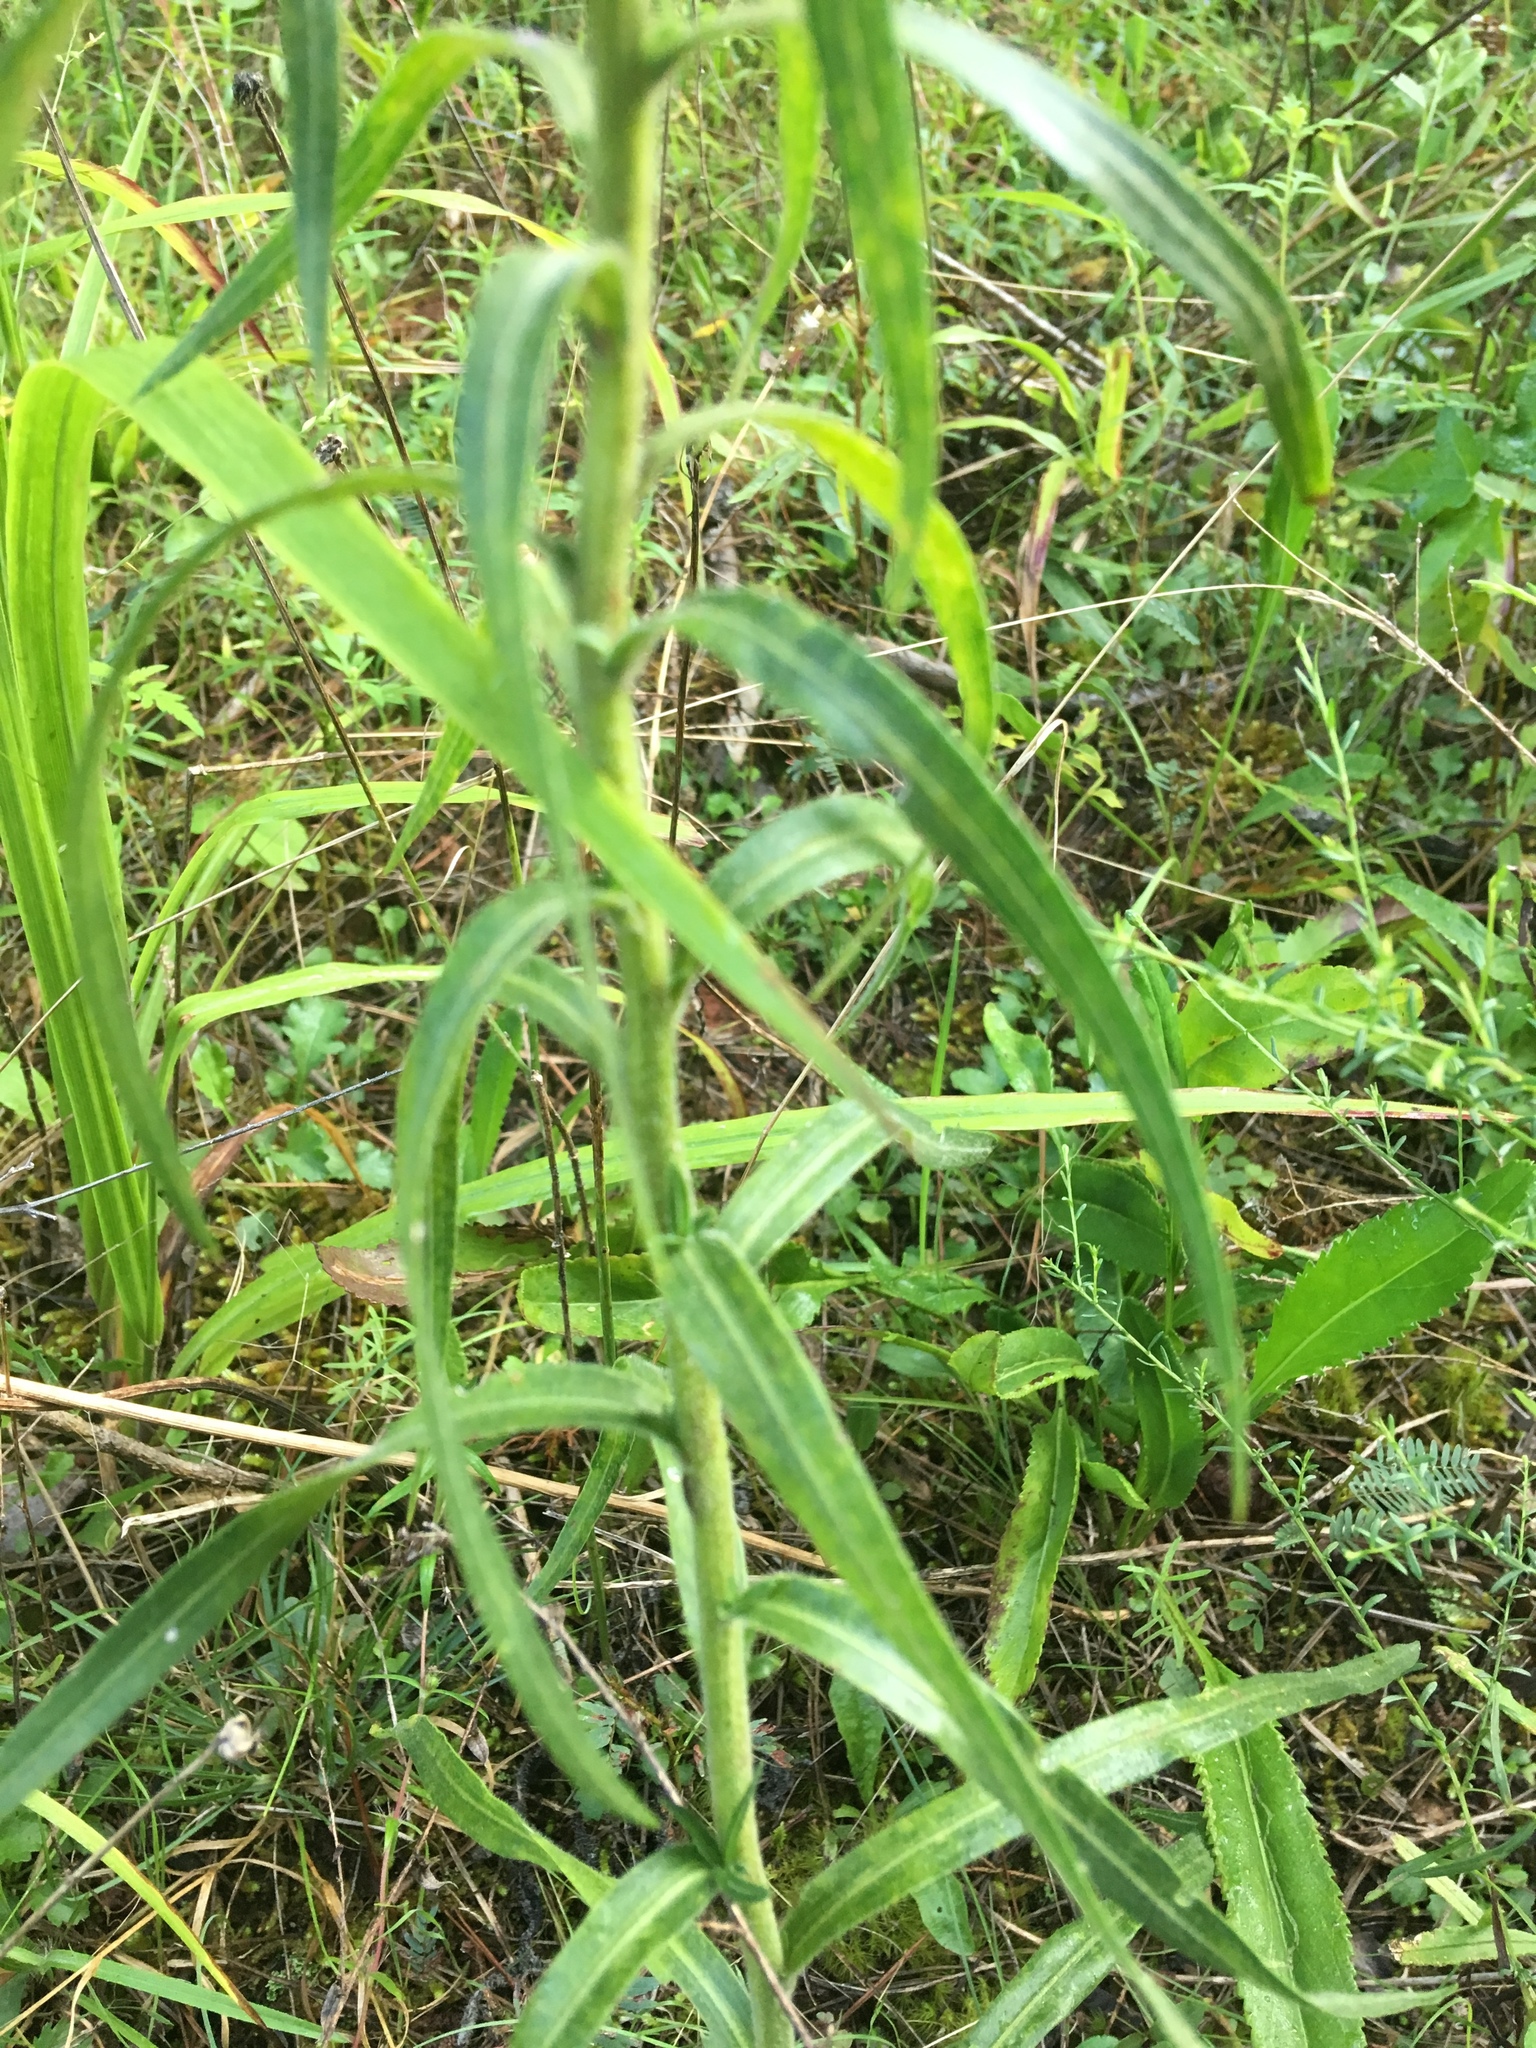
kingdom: Plantae
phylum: Tracheophyta
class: Magnoliopsida
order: Asterales
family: Asteraceae
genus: Liatris
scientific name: Liatris squarrosa
